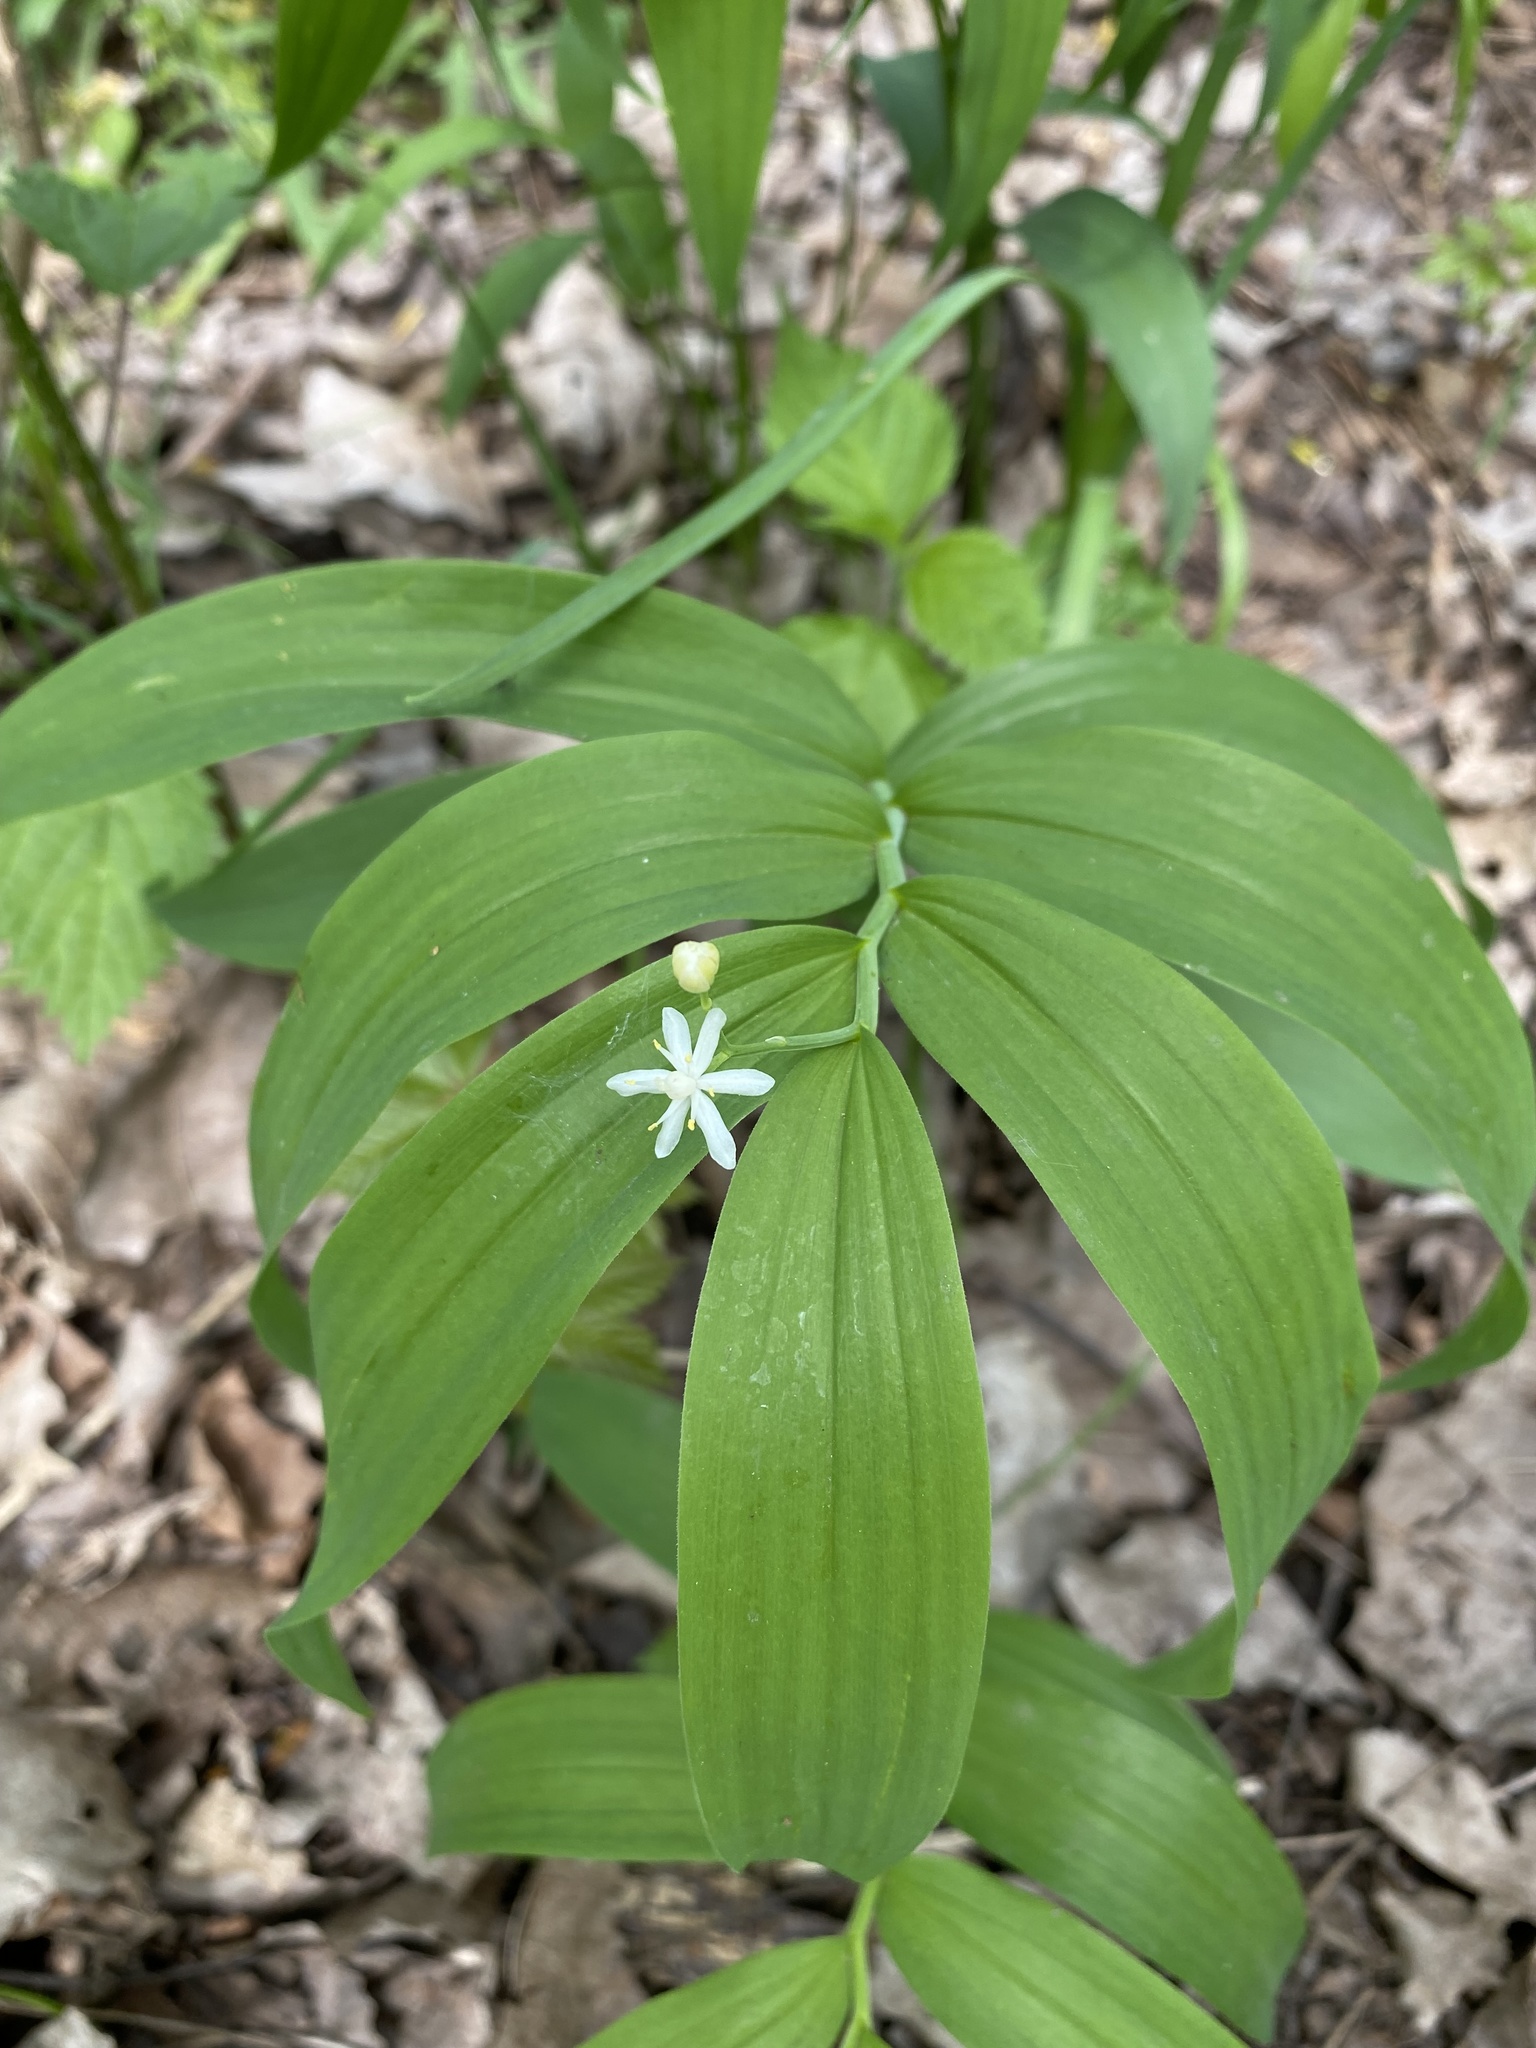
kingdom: Plantae
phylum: Tracheophyta
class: Liliopsida
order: Asparagales
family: Asparagaceae
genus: Maianthemum
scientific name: Maianthemum stellatum
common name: Little false solomon's seal
